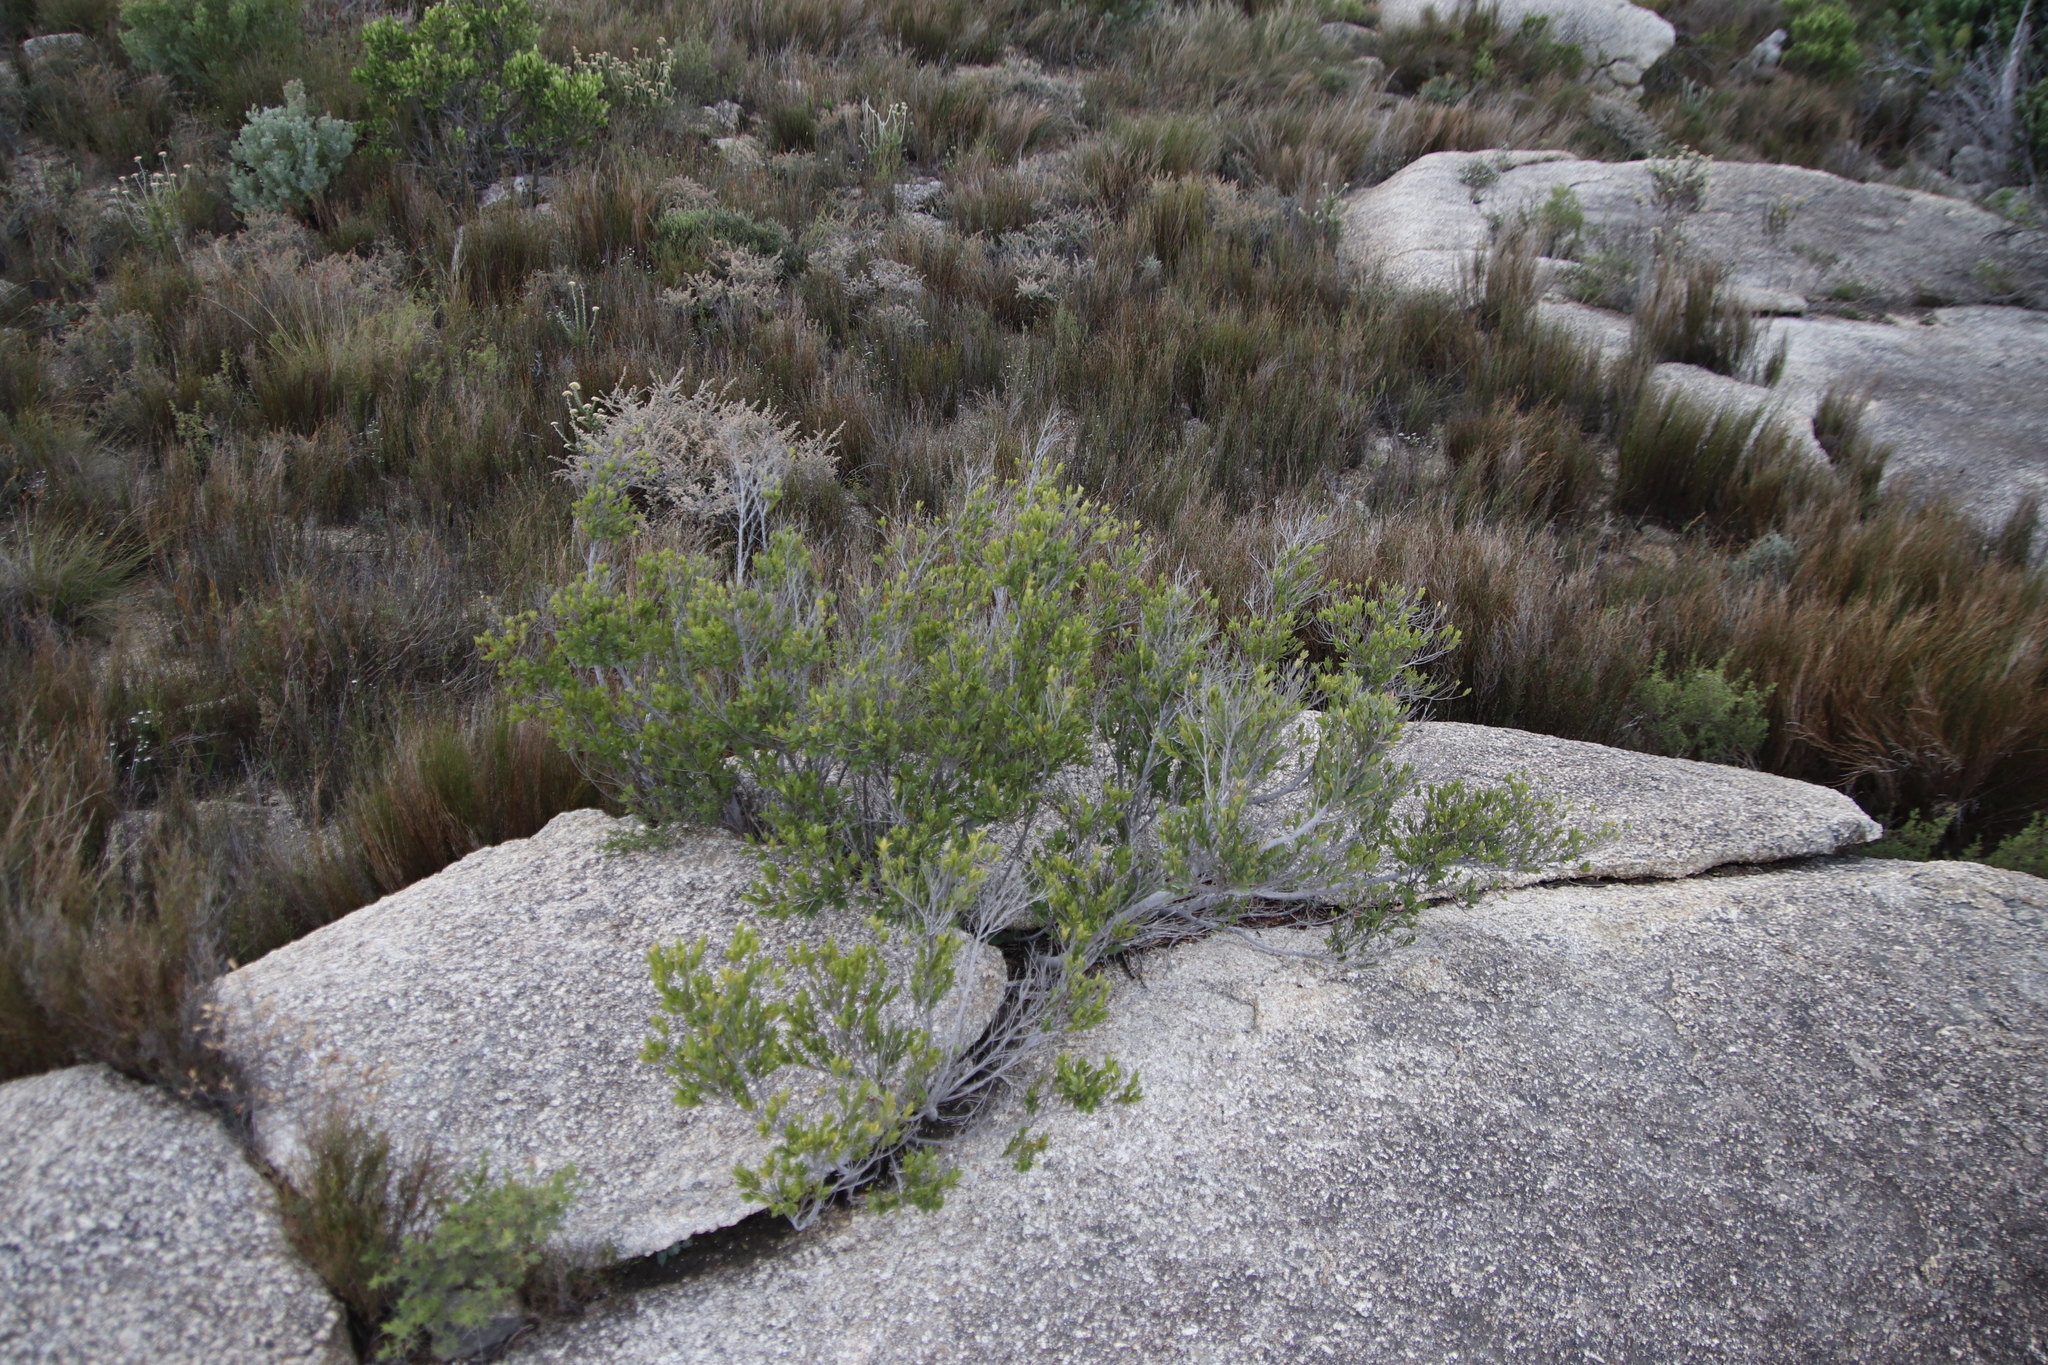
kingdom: Plantae
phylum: Tracheophyta
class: Magnoliopsida
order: Ericales
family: Ebenaceae
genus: Diospyros
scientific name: Diospyros glabra
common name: Fynbos star apple
